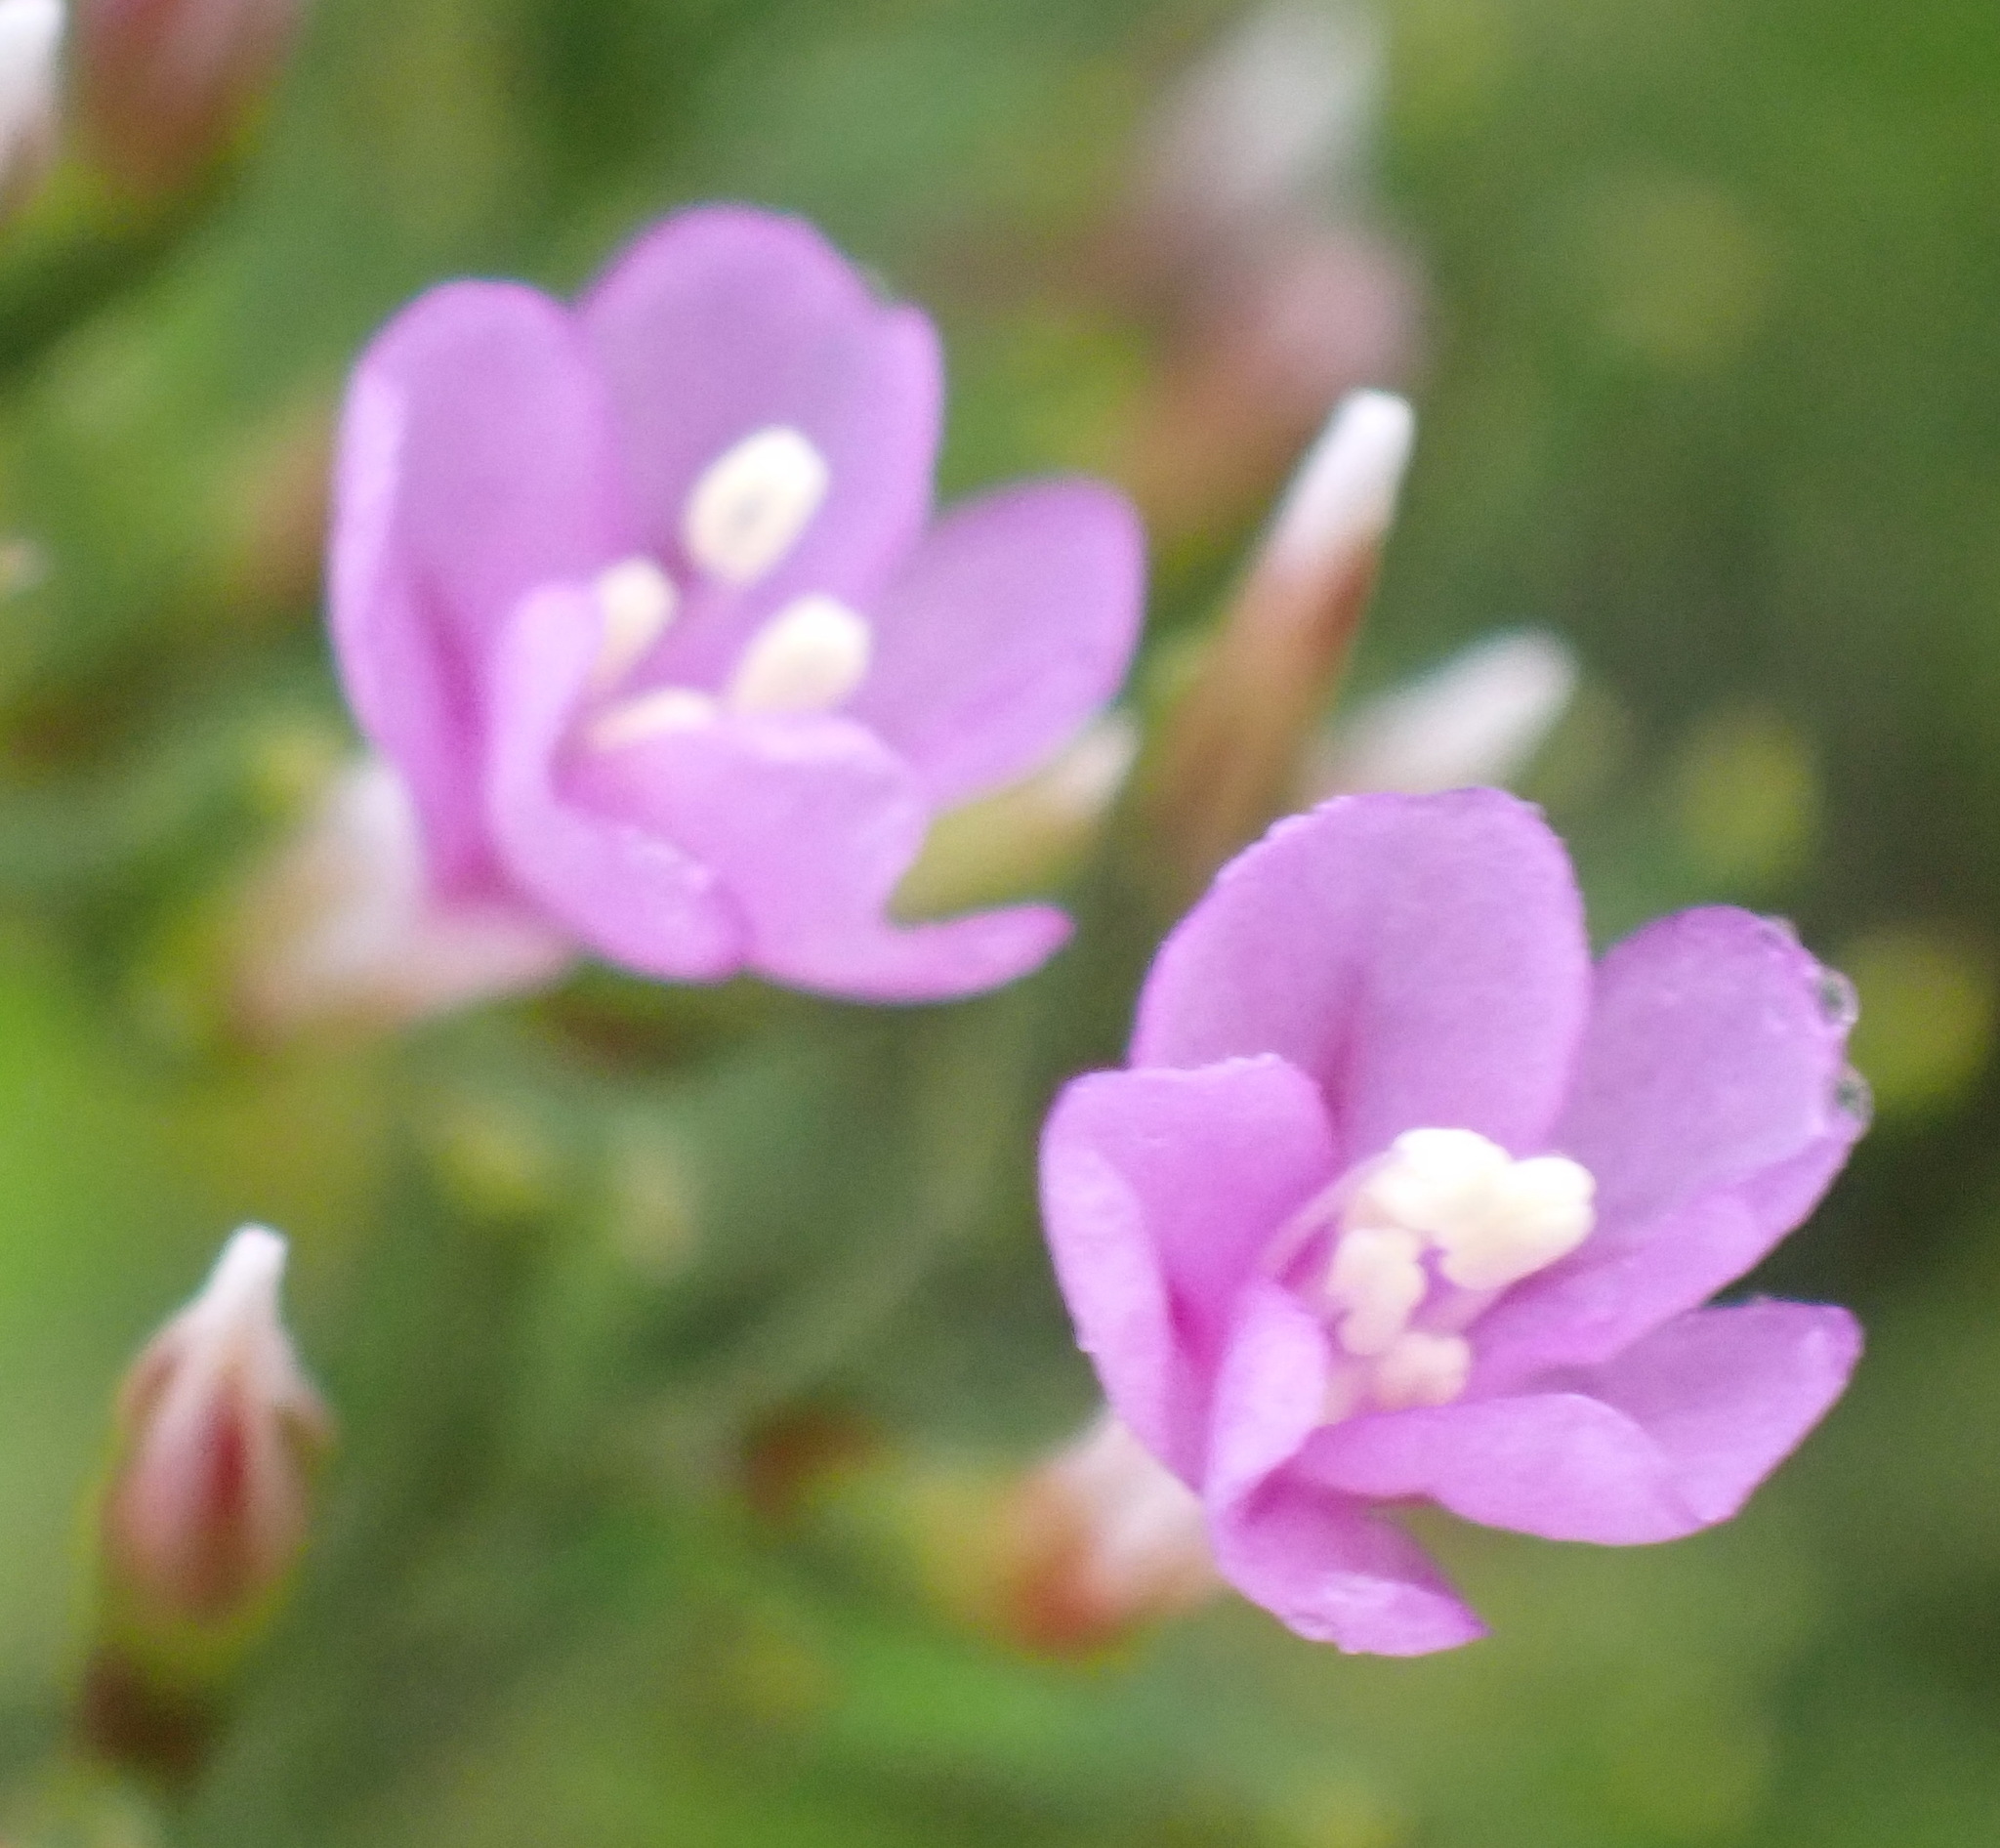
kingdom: Plantae
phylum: Tracheophyta
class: Magnoliopsida
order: Caryophyllales
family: Plumbaginaceae
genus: Limonium
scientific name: Limonium scabrum
